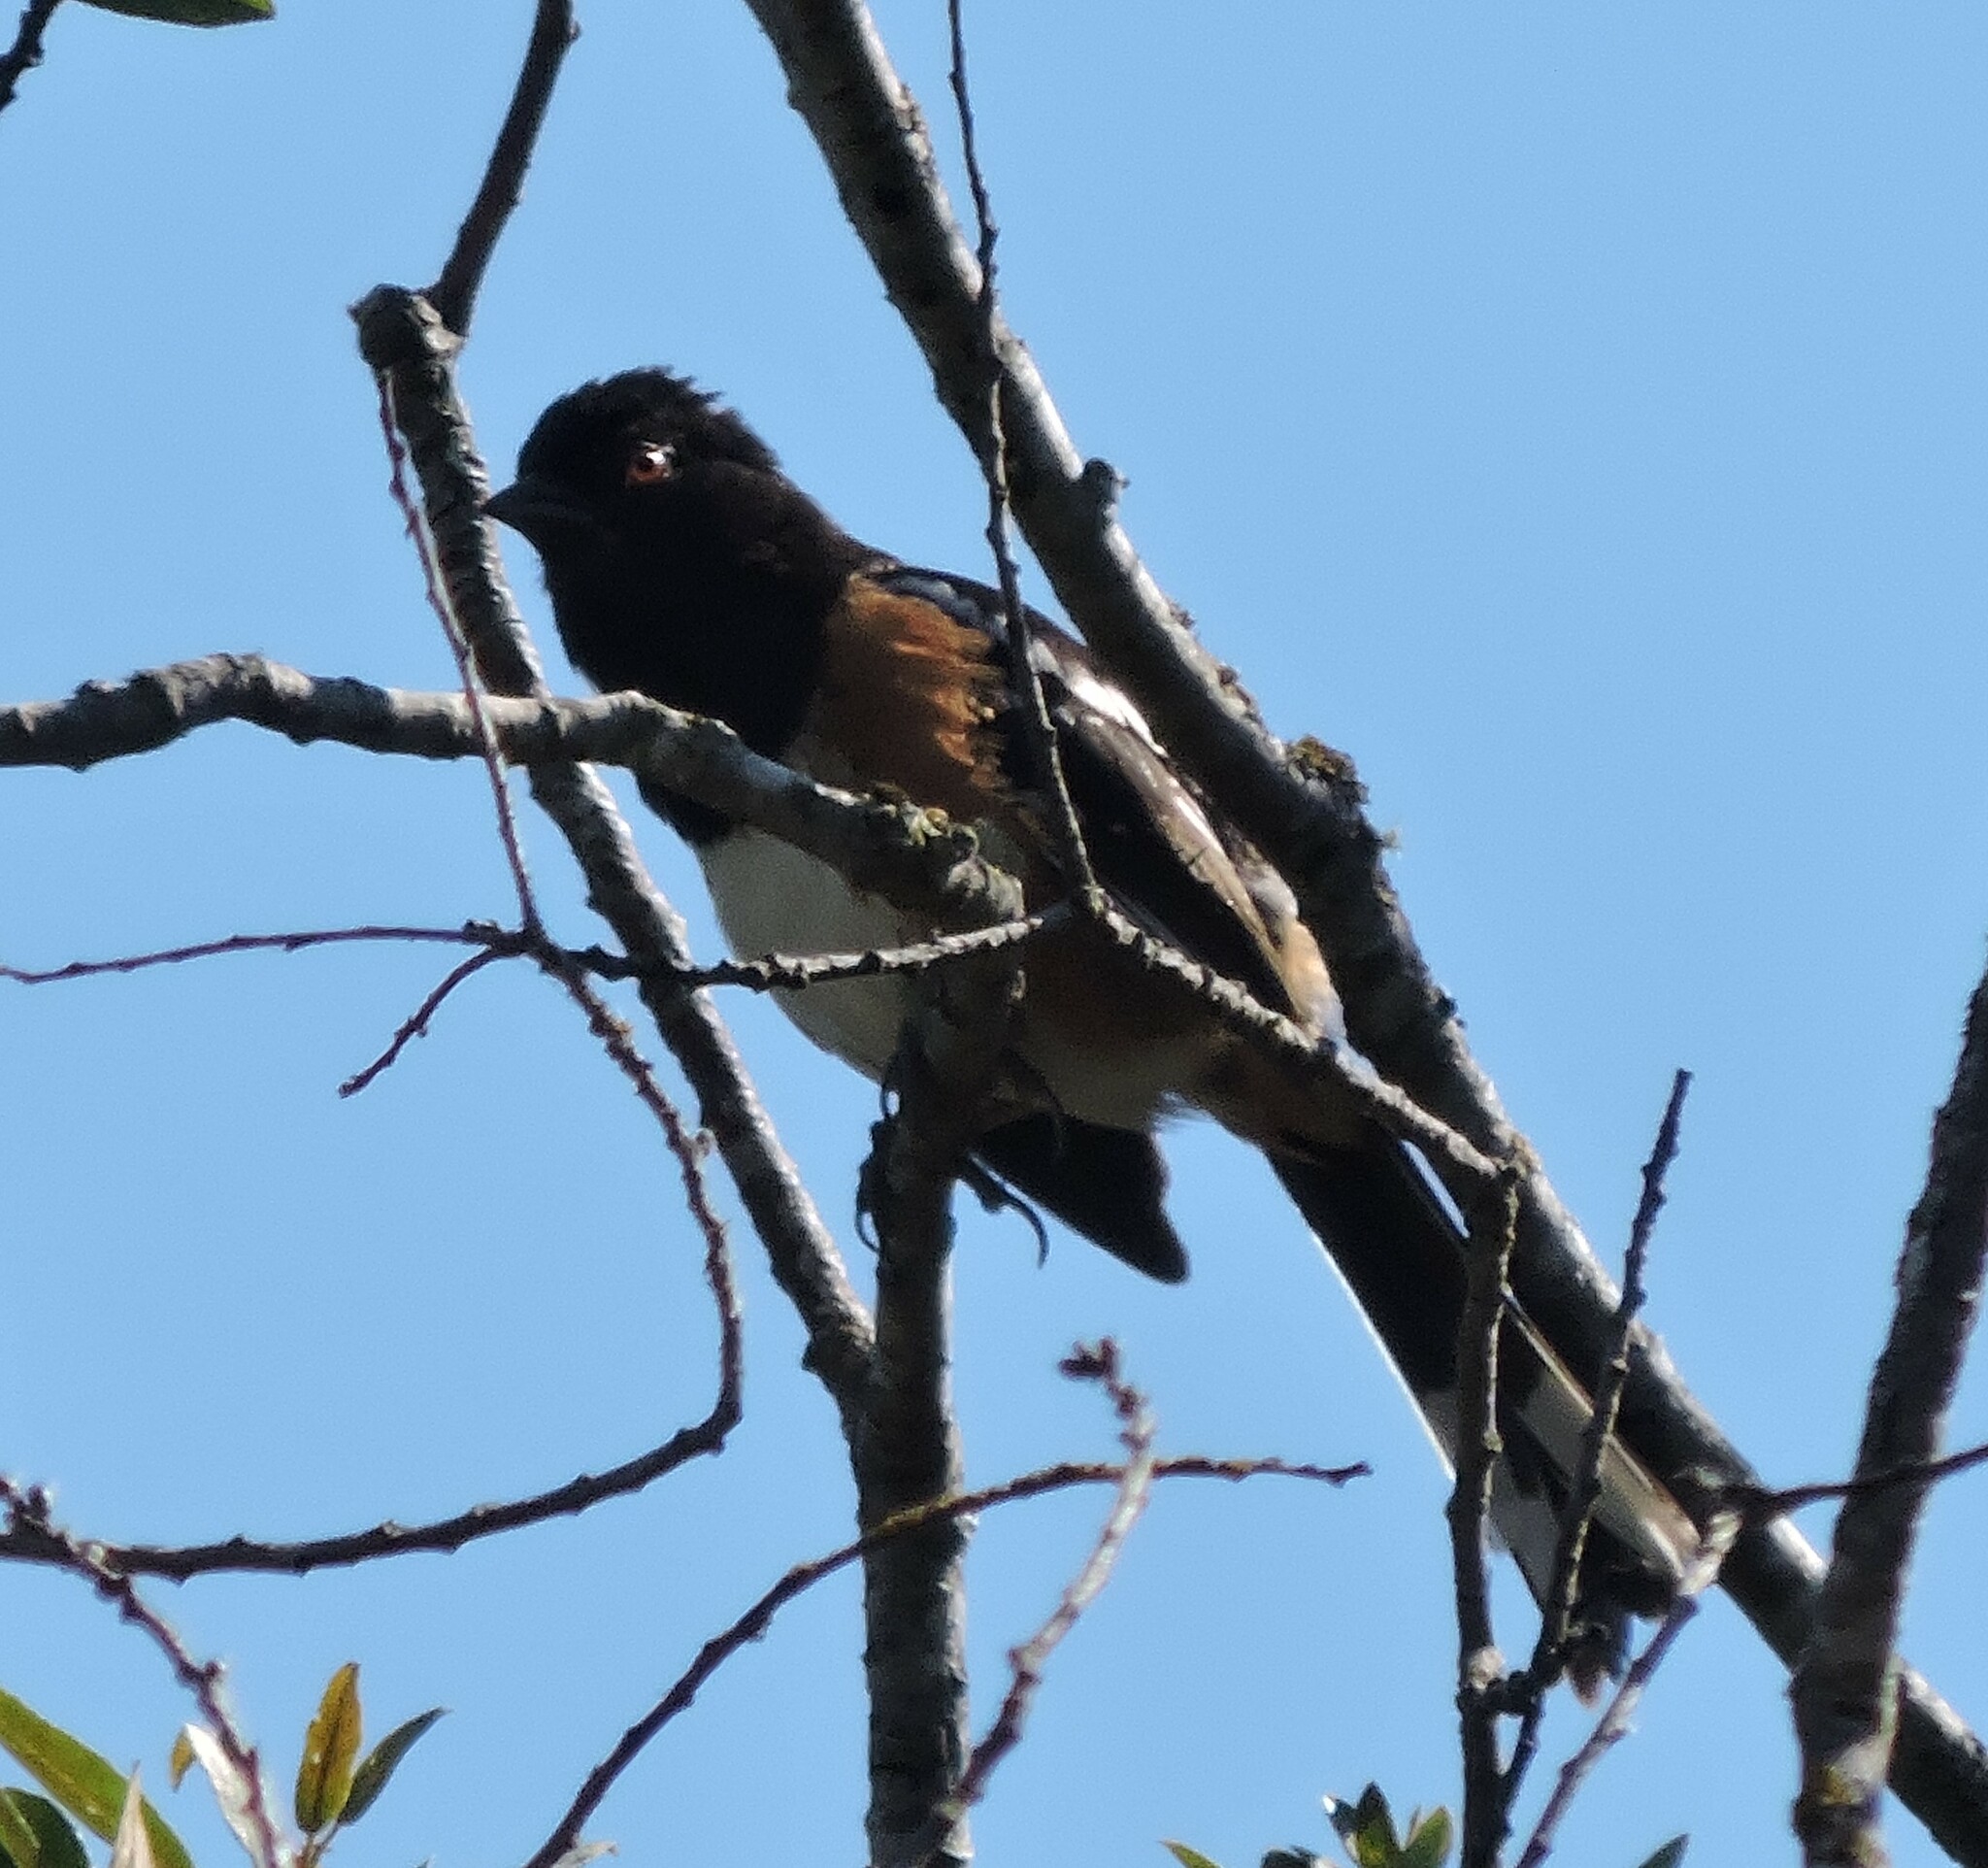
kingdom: Animalia
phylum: Chordata
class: Aves
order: Passeriformes
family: Passerellidae
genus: Pipilo
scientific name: Pipilo maculatus
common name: Spotted towhee
